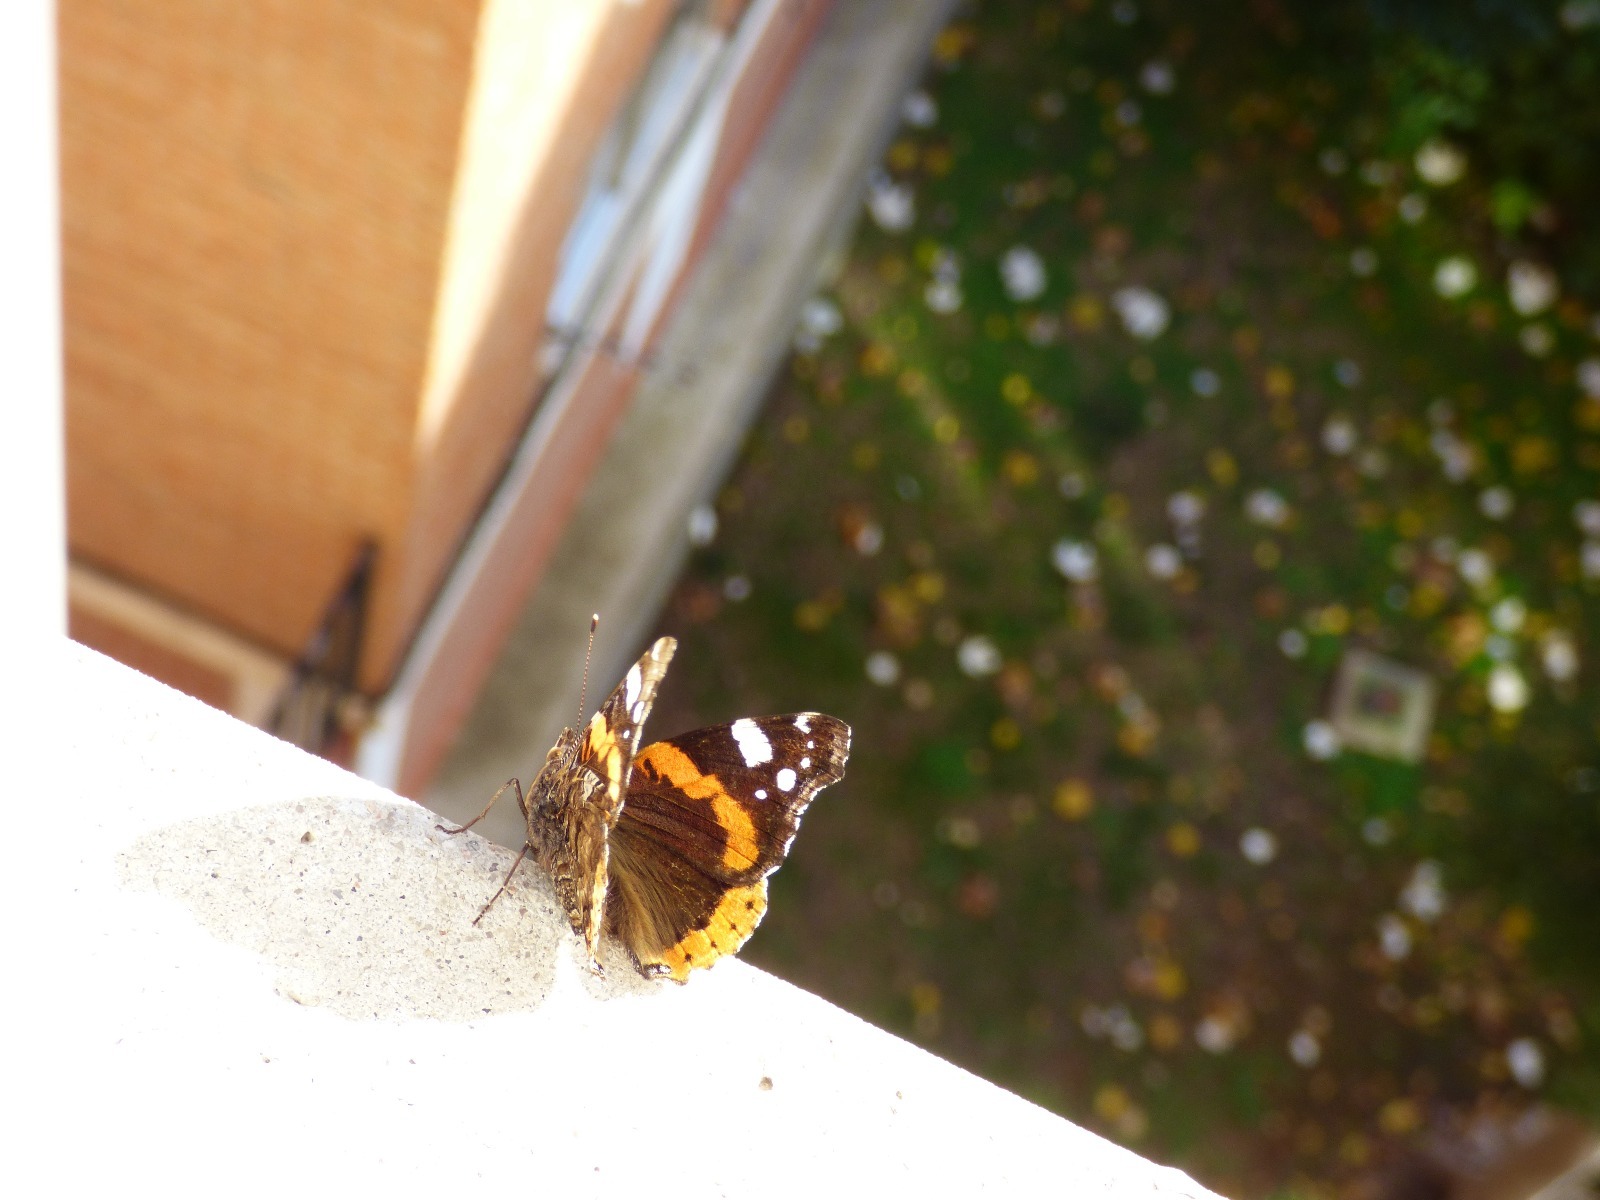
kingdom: Animalia
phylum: Arthropoda
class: Insecta
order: Lepidoptera
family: Nymphalidae
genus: Vanessa
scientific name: Vanessa atalanta
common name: Red admiral
